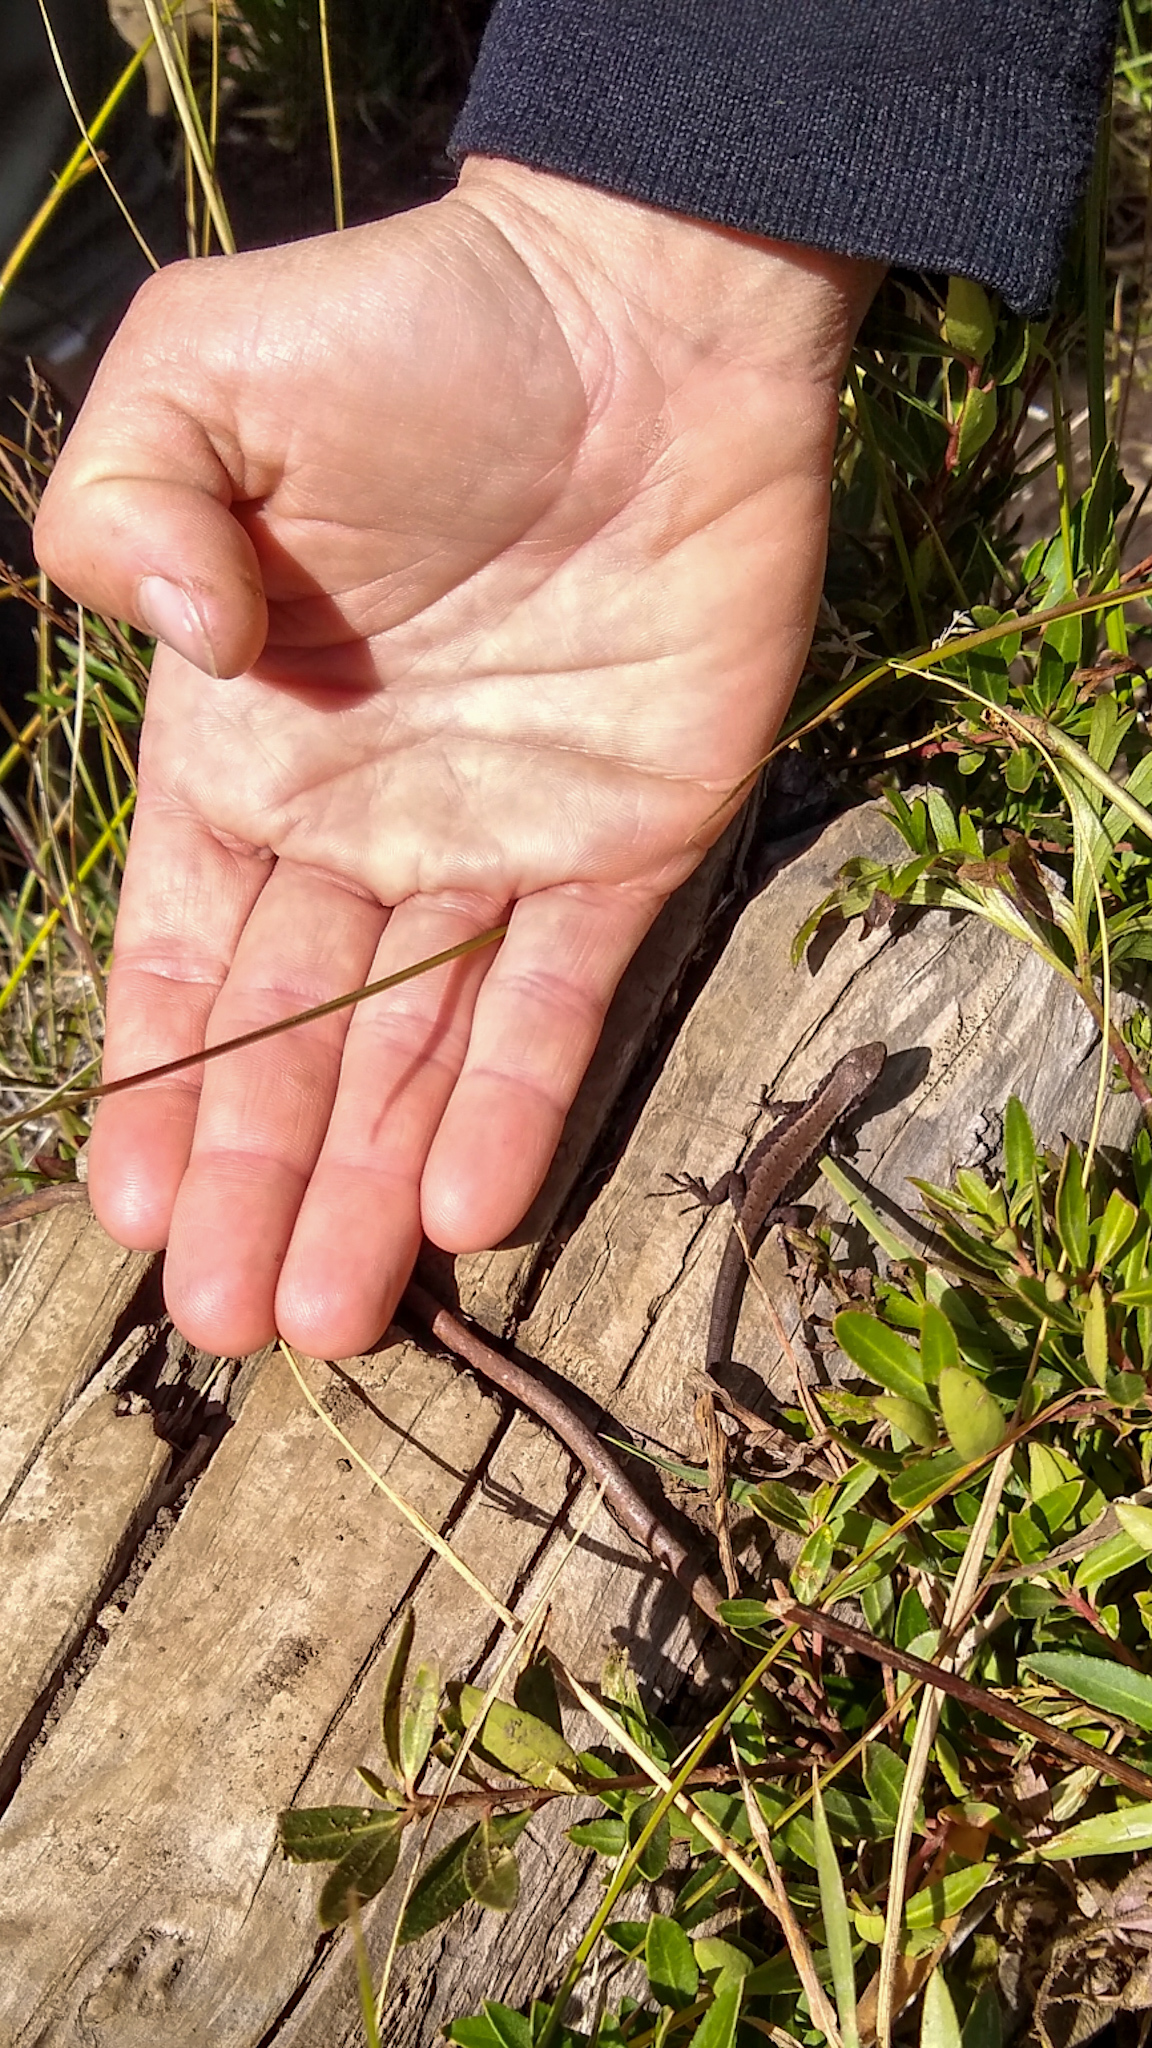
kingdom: Animalia
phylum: Chordata
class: Squamata
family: Liolaemidae
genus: Liolaemus
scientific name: Liolaemus pictus
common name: Painted tree iguana
